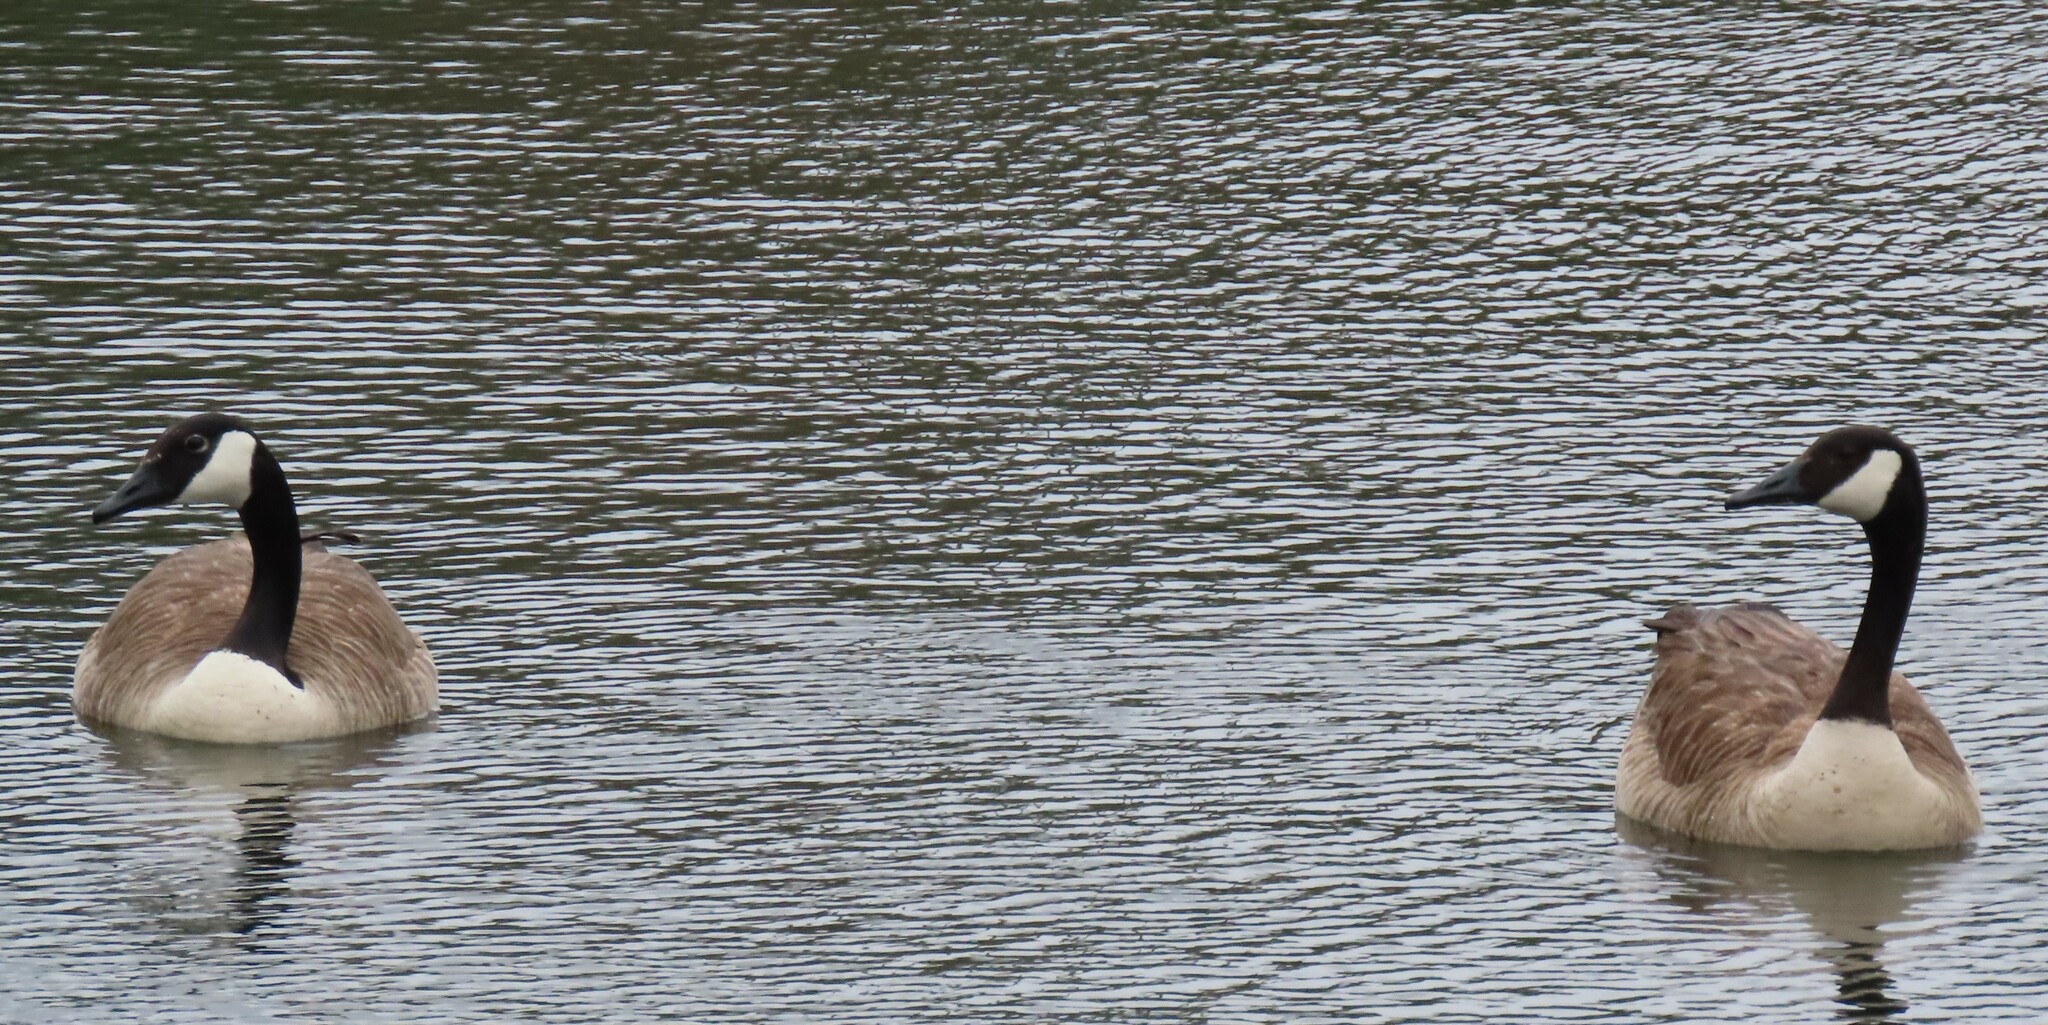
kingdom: Animalia
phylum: Chordata
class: Aves
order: Anseriformes
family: Anatidae
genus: Branta
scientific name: Branta canadensis
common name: Canada goose
